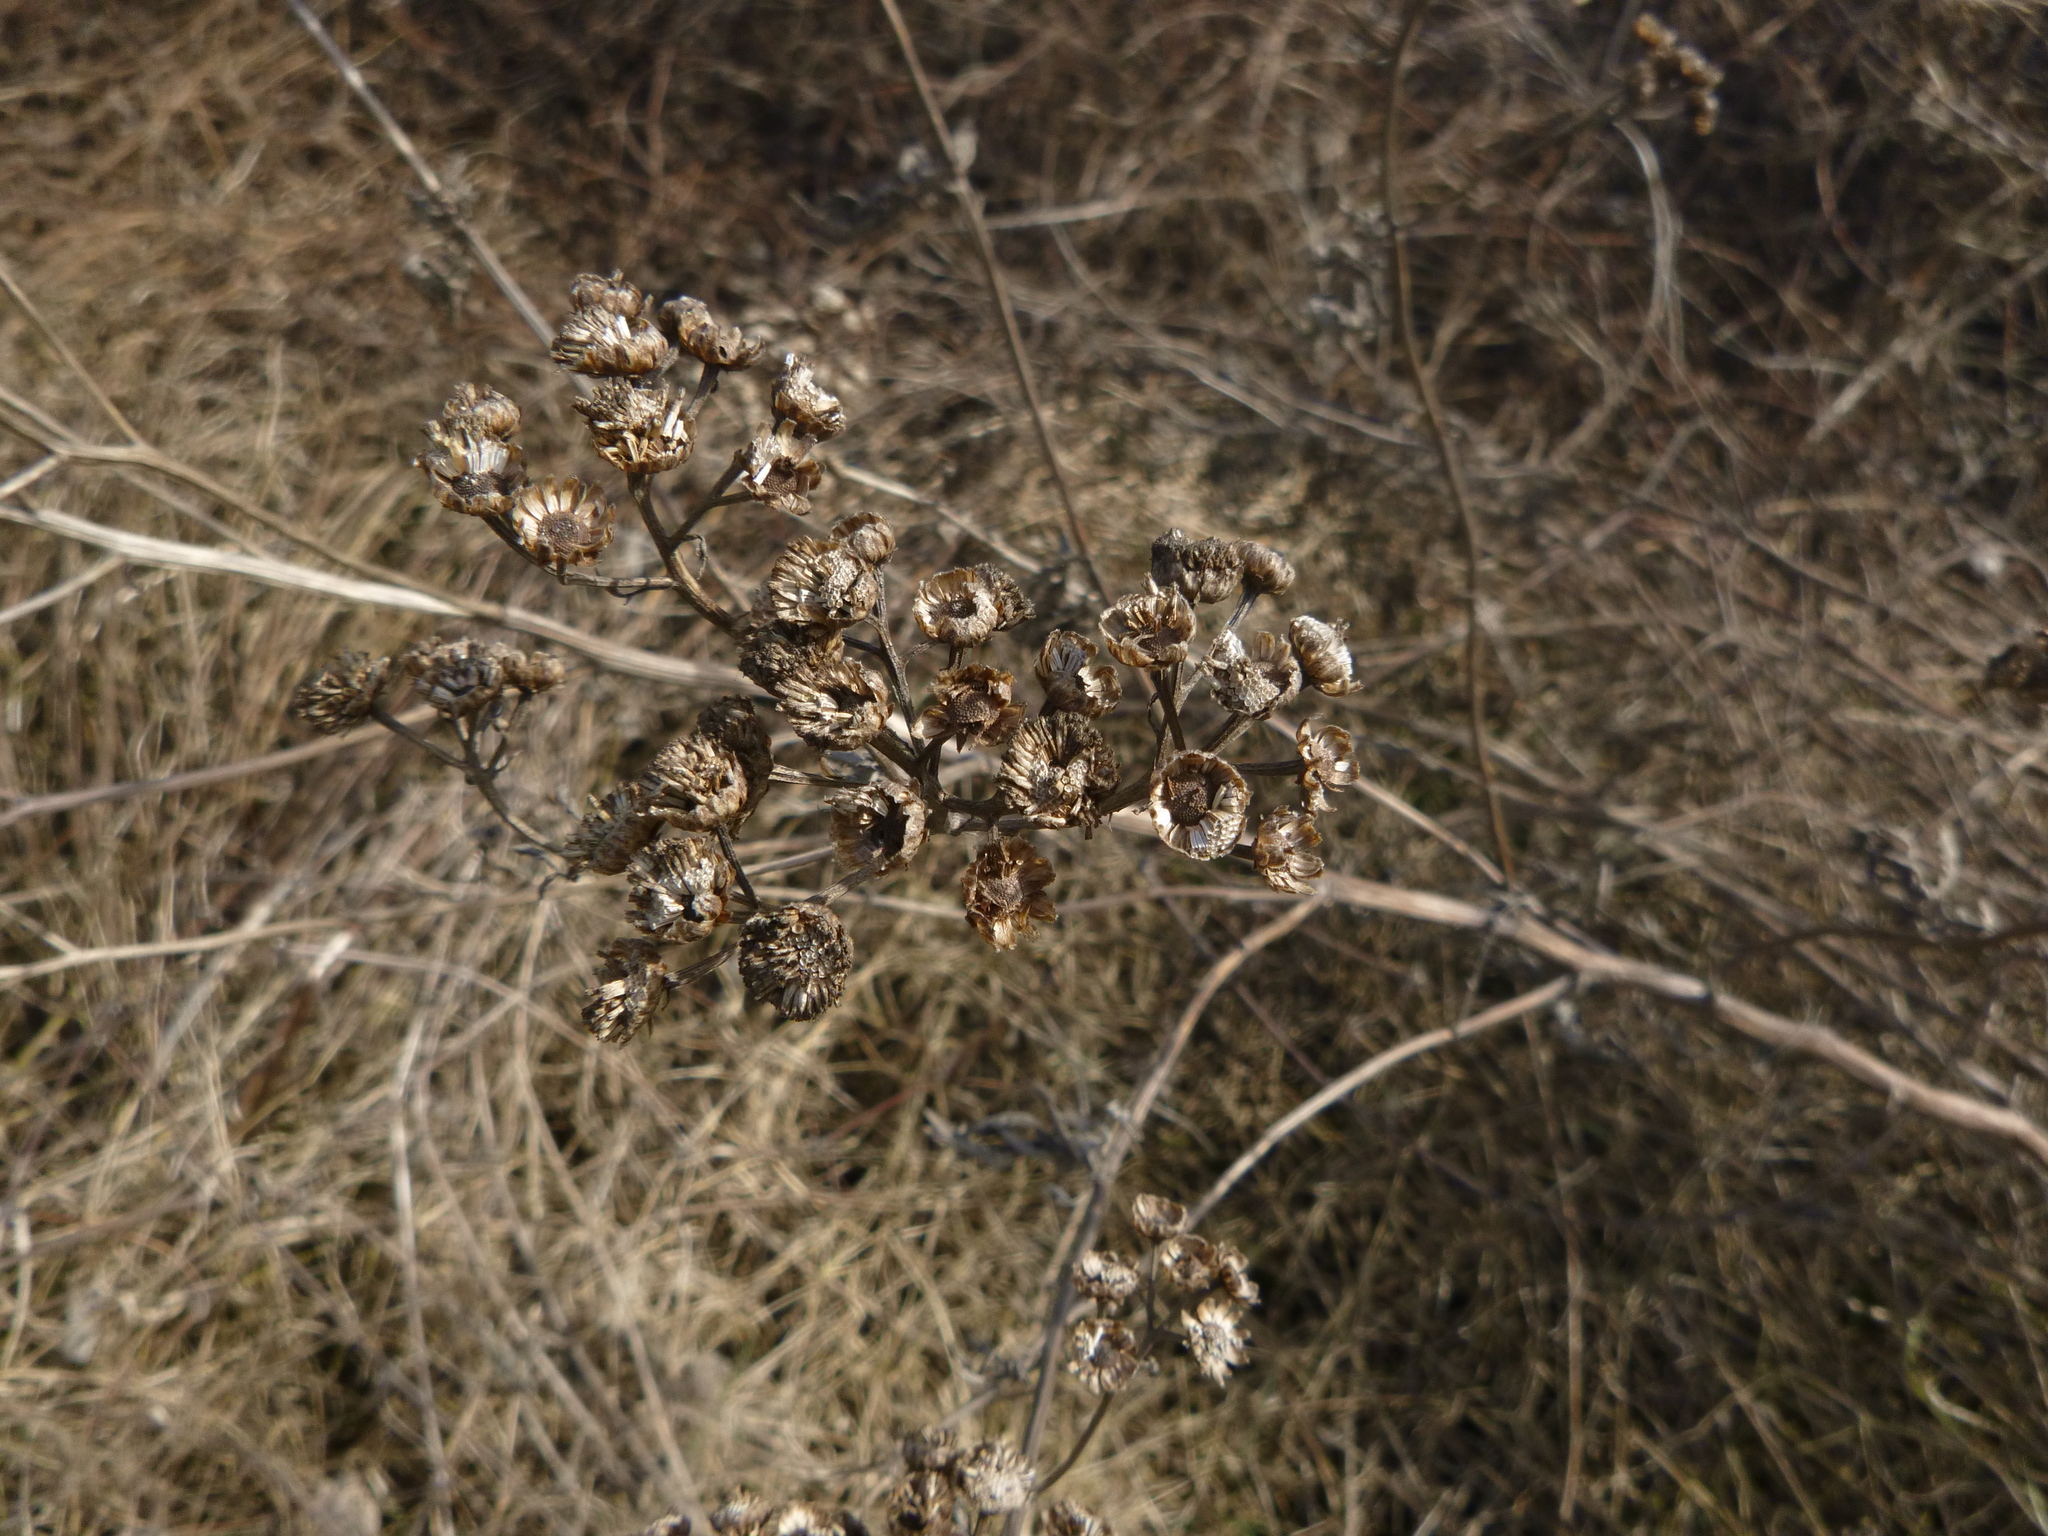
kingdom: Plantae
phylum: Tracheophyta
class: Magnoliopsida
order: Asterales
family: Asteraceae
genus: Tanacetum
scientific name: Tanacetum vulgare
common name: Common tansy
